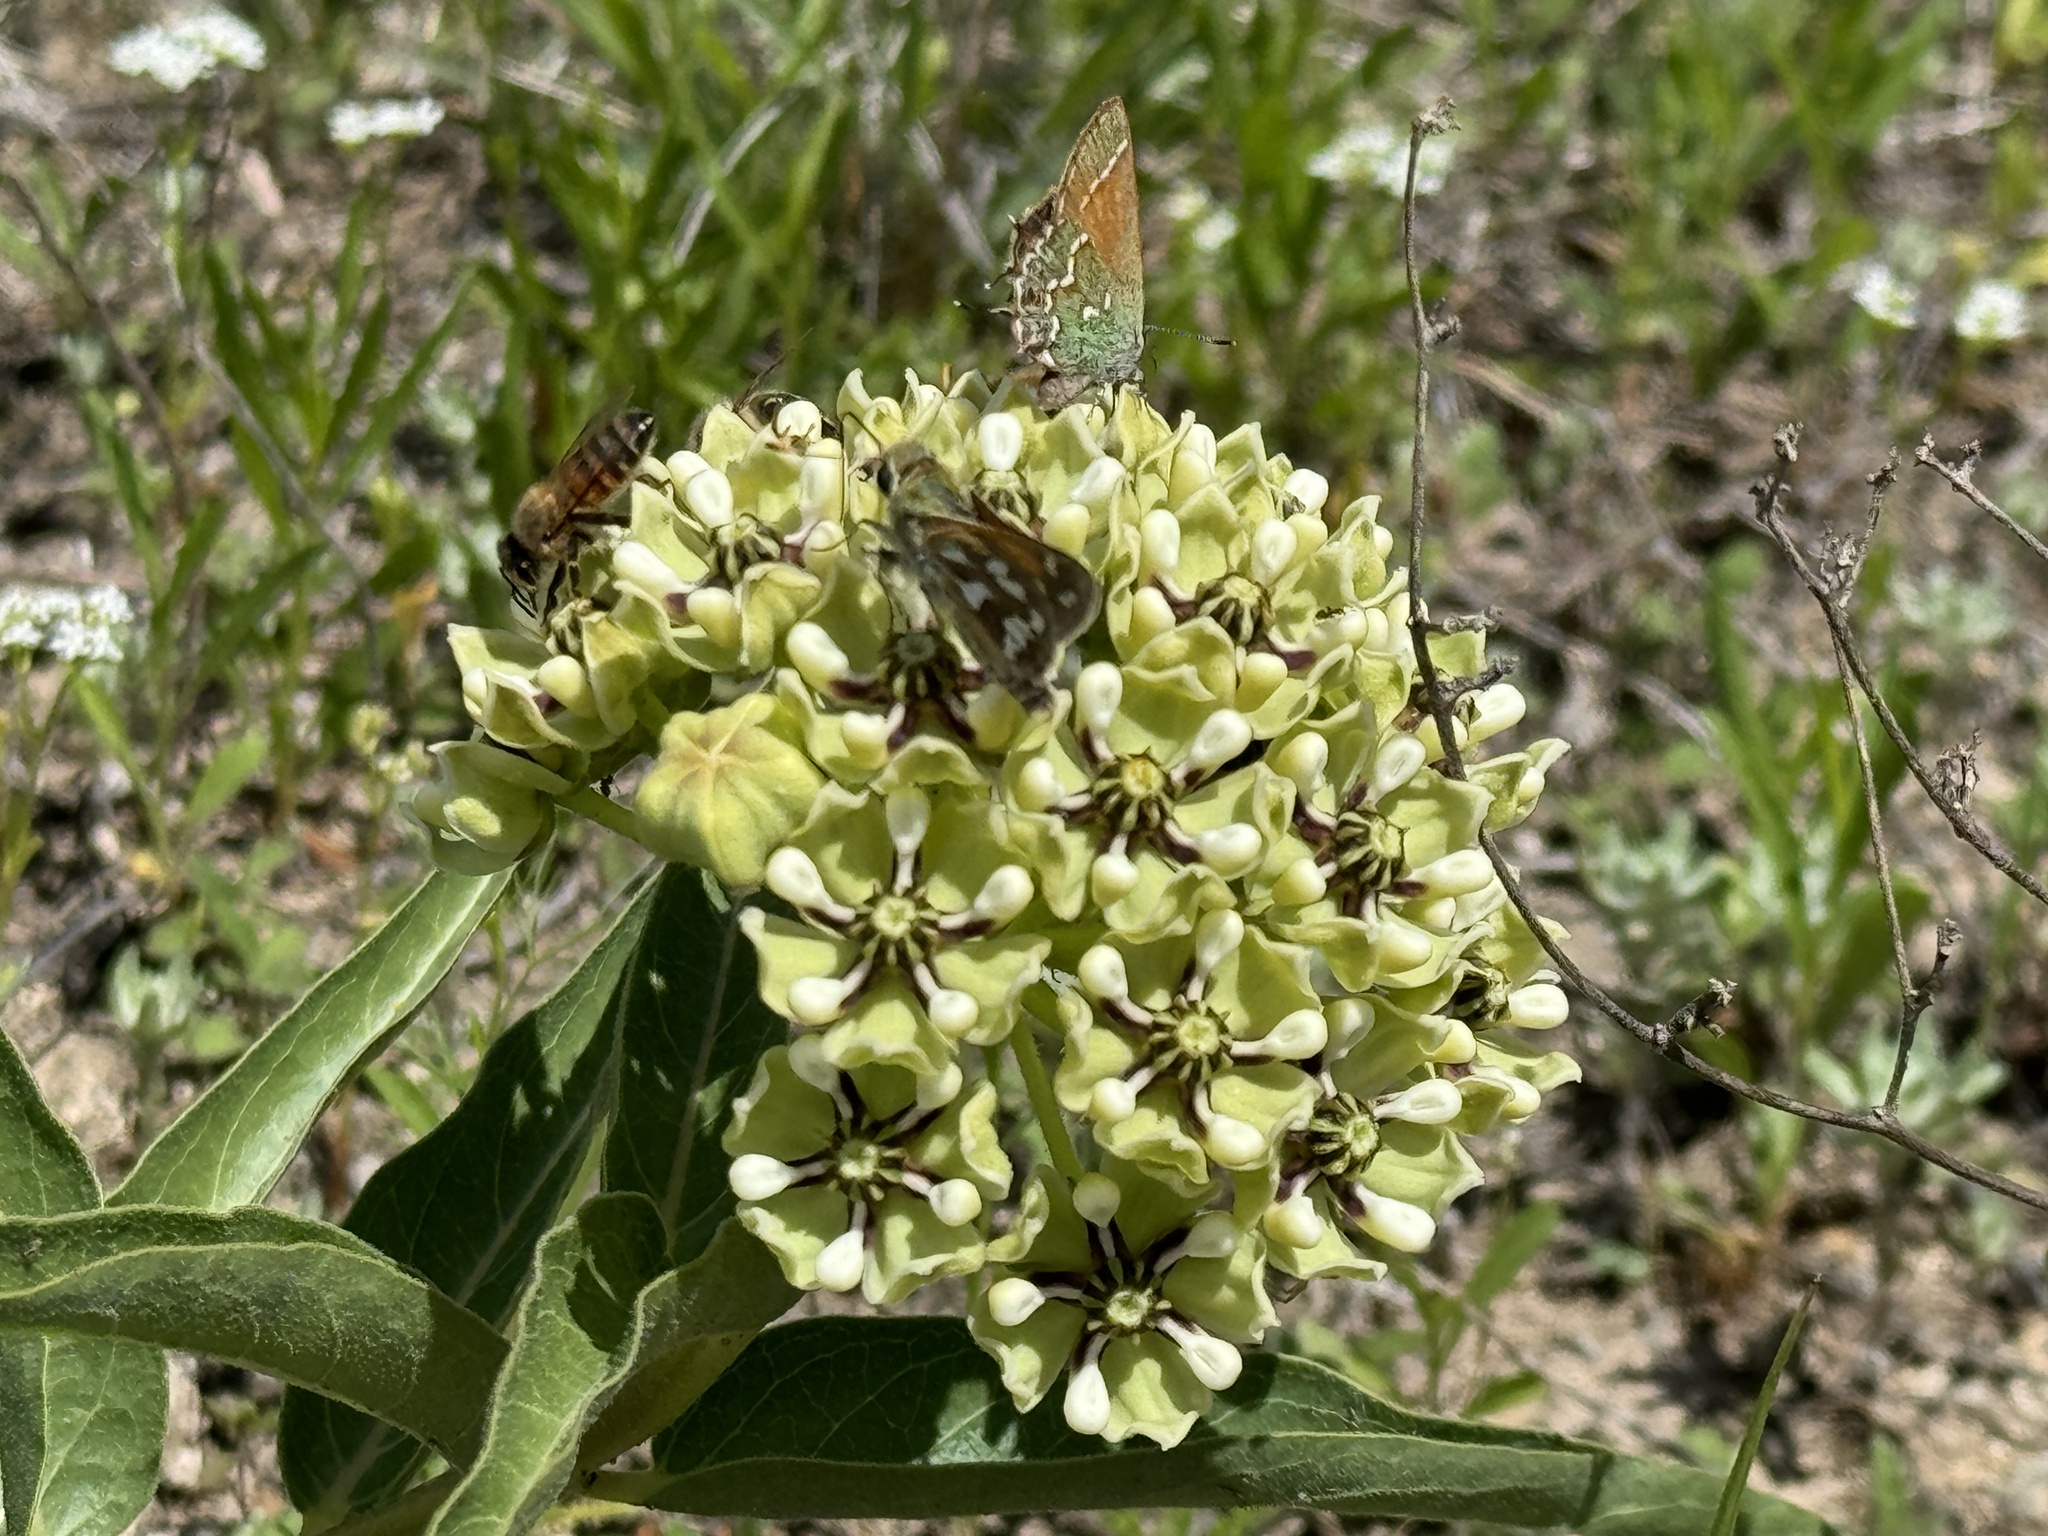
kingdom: Plantae
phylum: Tracheophyta
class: Magnoliopsida
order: Gentianales
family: Apocynaceae
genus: Asclepias
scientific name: Asclepias asperula
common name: Antelope horns
